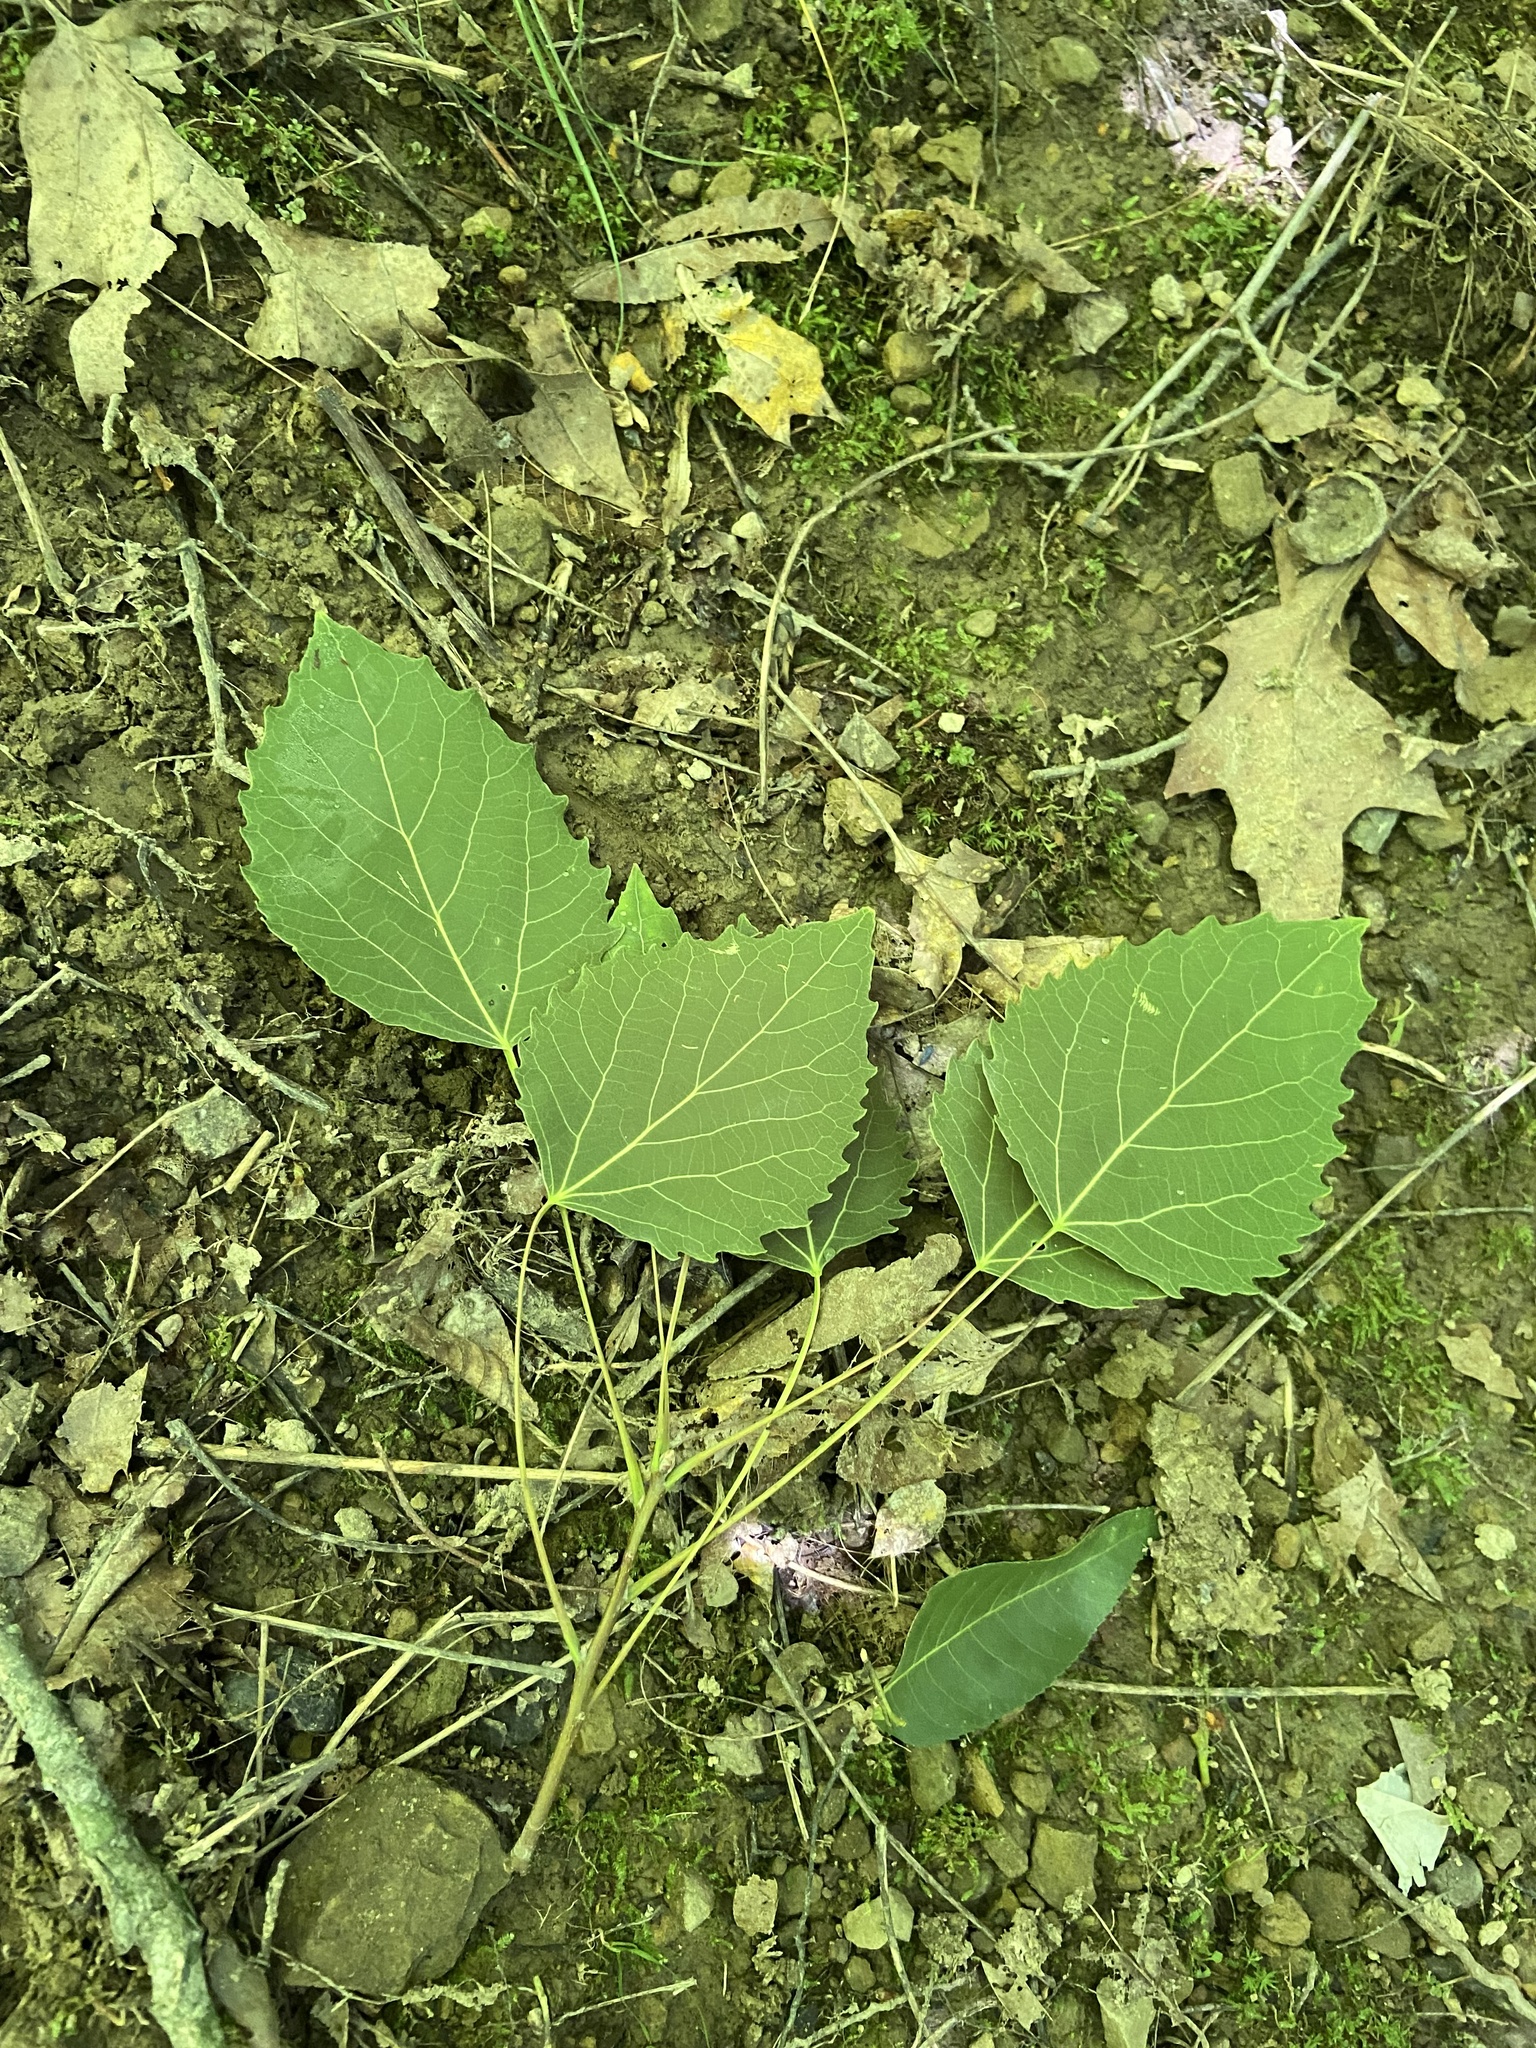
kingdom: Plantae
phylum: Tracheophyta
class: Magnoliopsida
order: Malpighiales
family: Salicaceae
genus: Populus
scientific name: Populus grandidentata
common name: Bigtooth aspen
